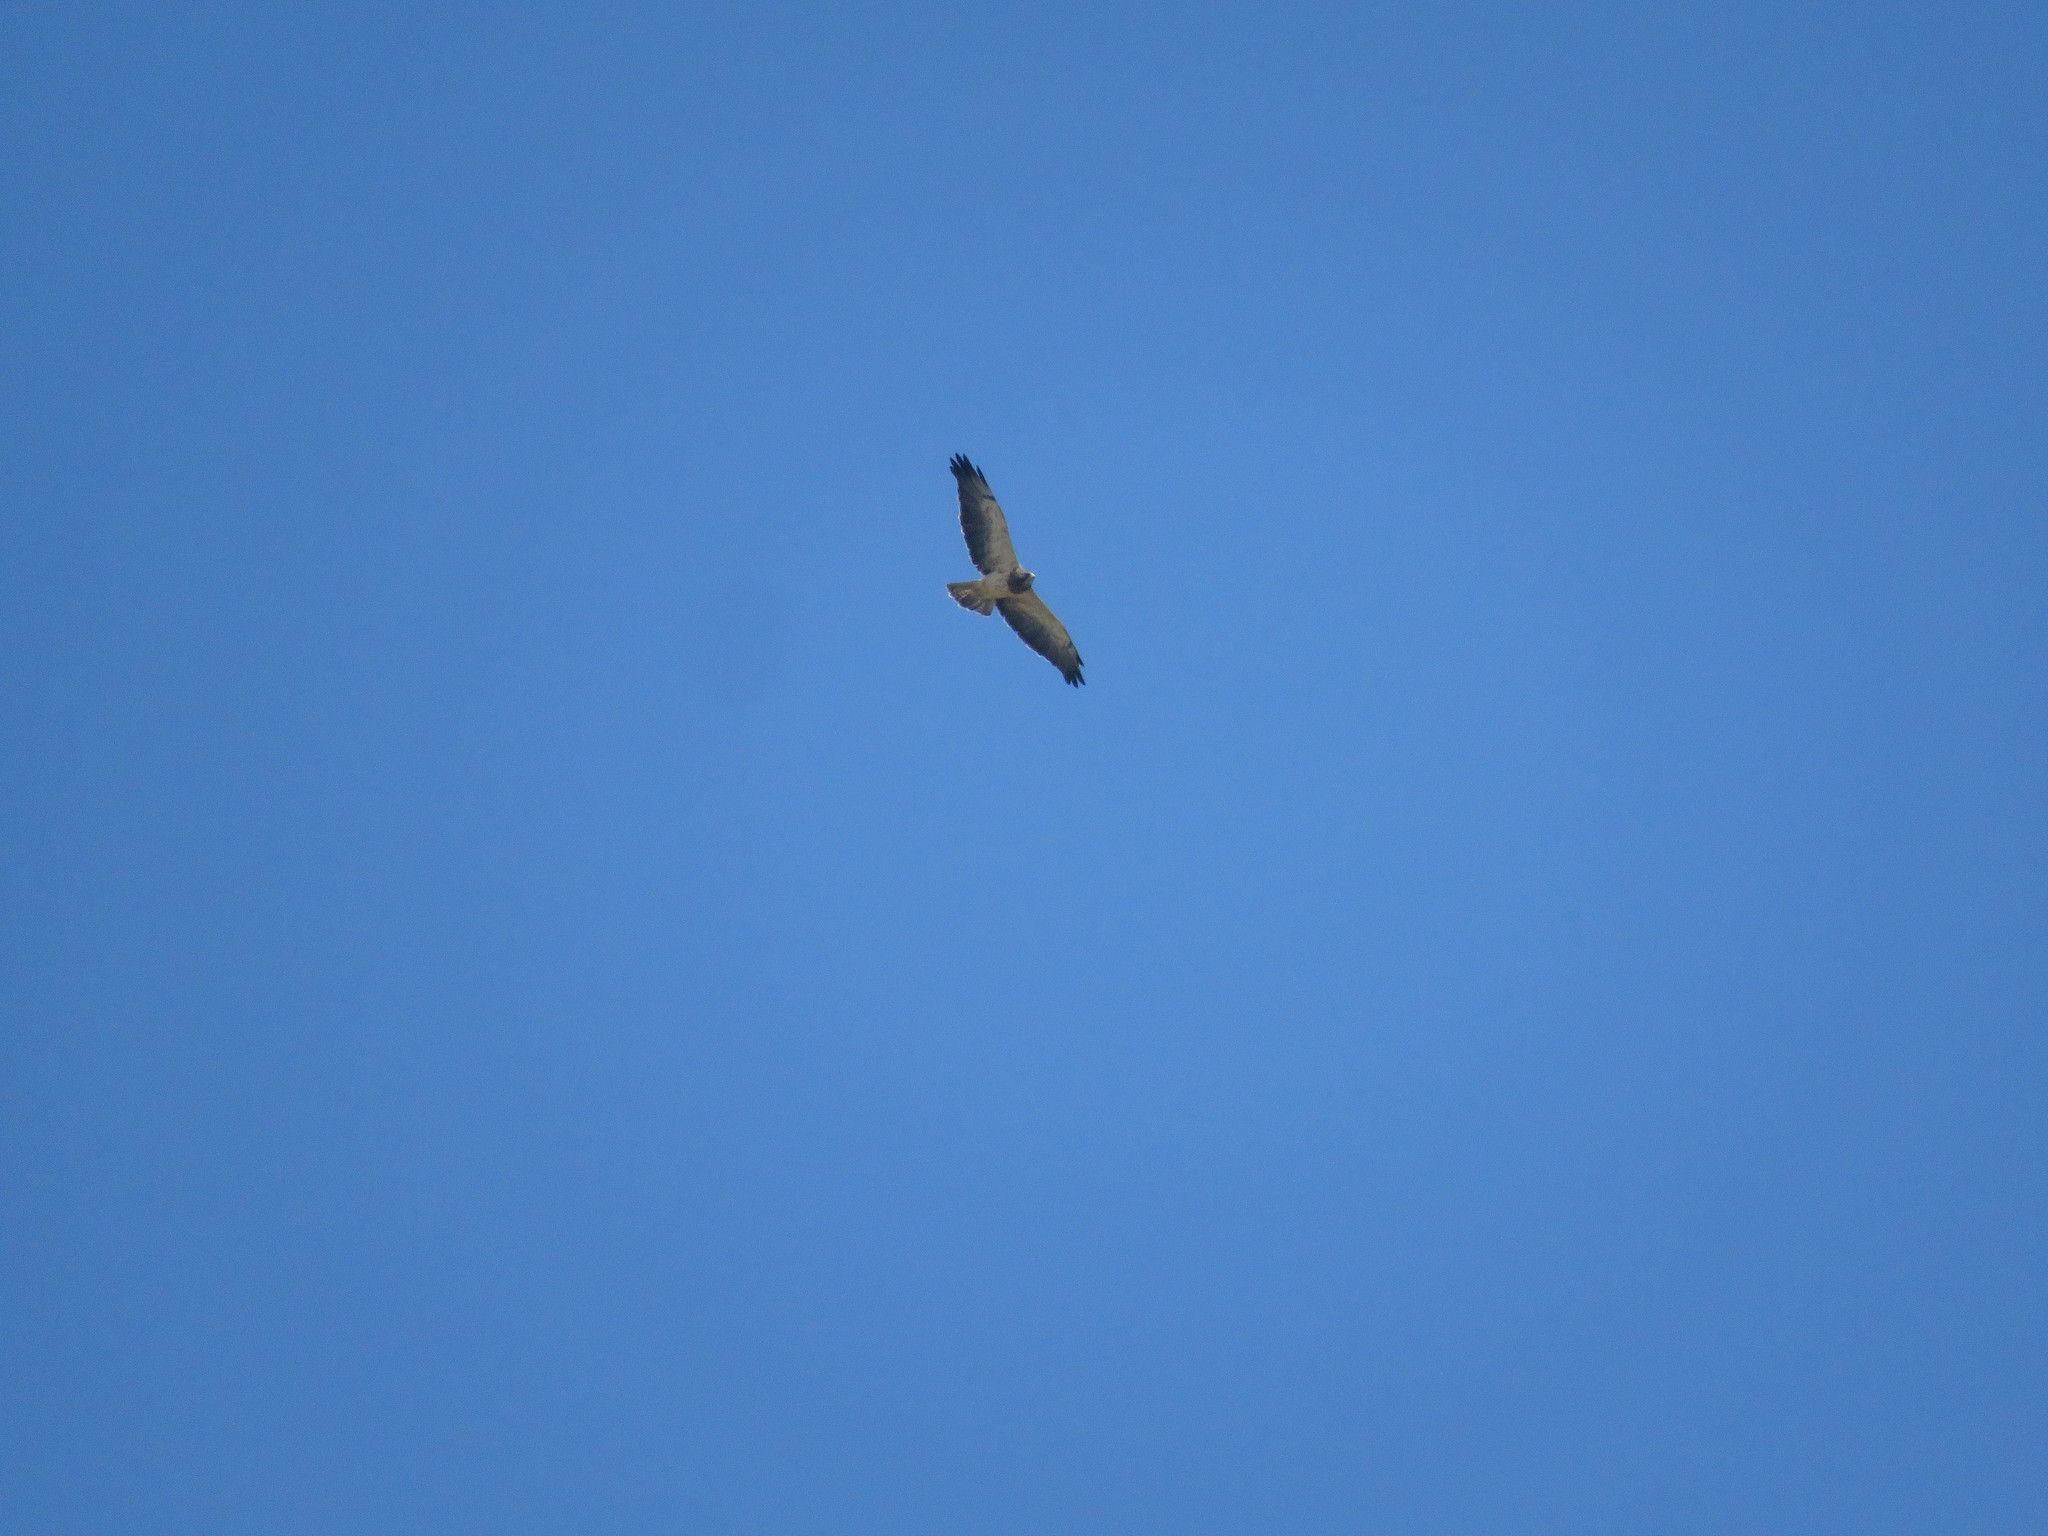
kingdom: Animalia
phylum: Chordata
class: Aves
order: Accipitriformes
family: Accipitridae
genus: Buteo
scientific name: Buteo swainsoni
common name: Swainson's hawk
